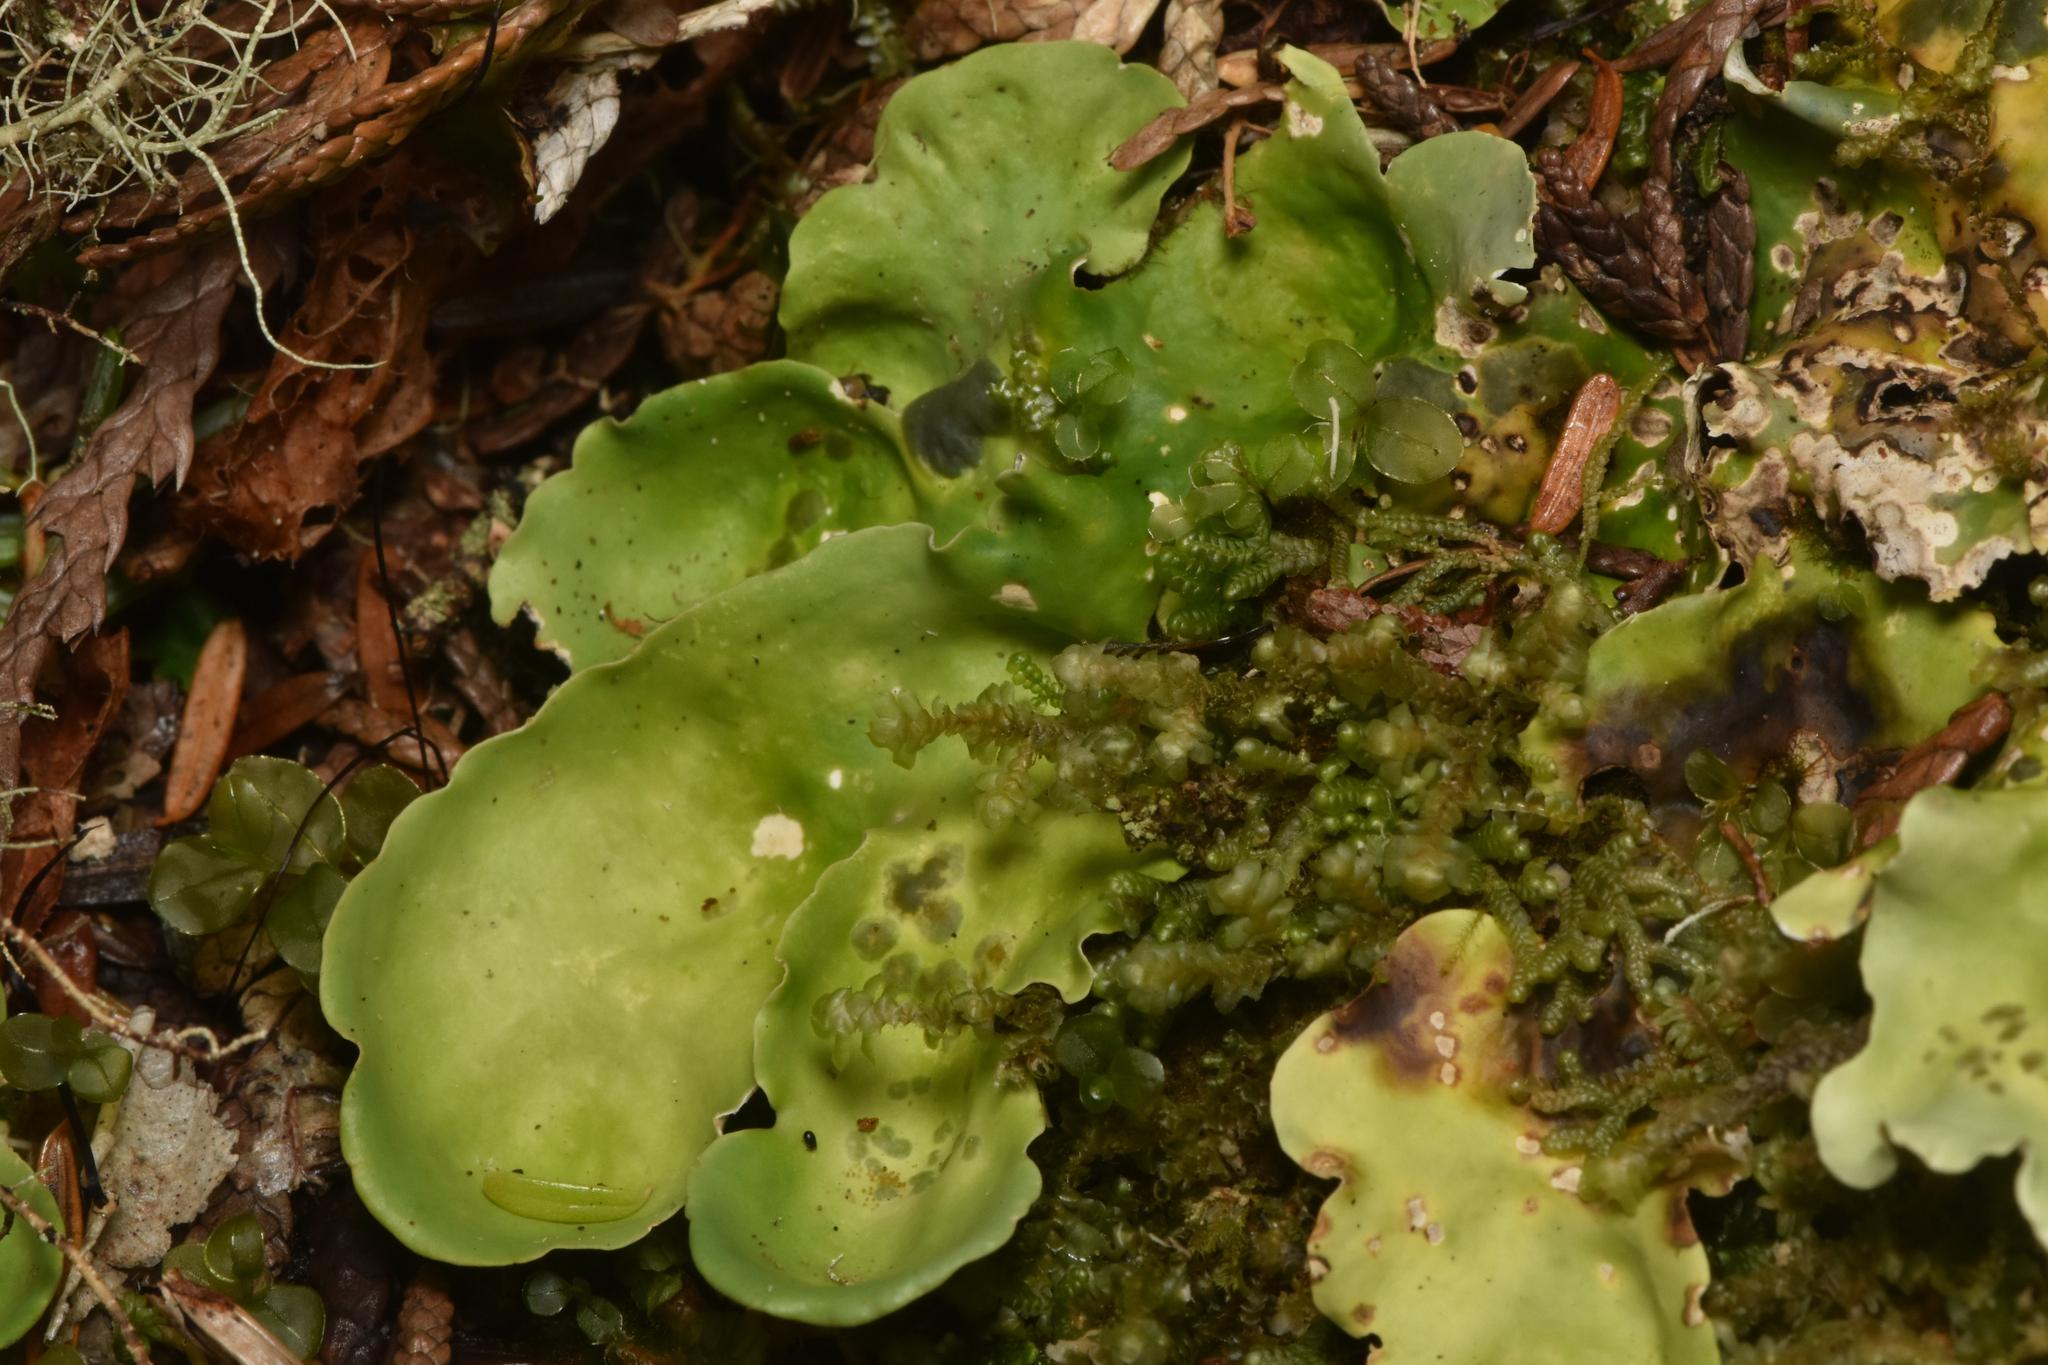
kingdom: Fungi
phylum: Ascomycota
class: Lecanoromycetes
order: Peltigerales
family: Nephromataceae
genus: Nephroma
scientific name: Nephroma arcticum
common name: Arctic kidney-lichen
